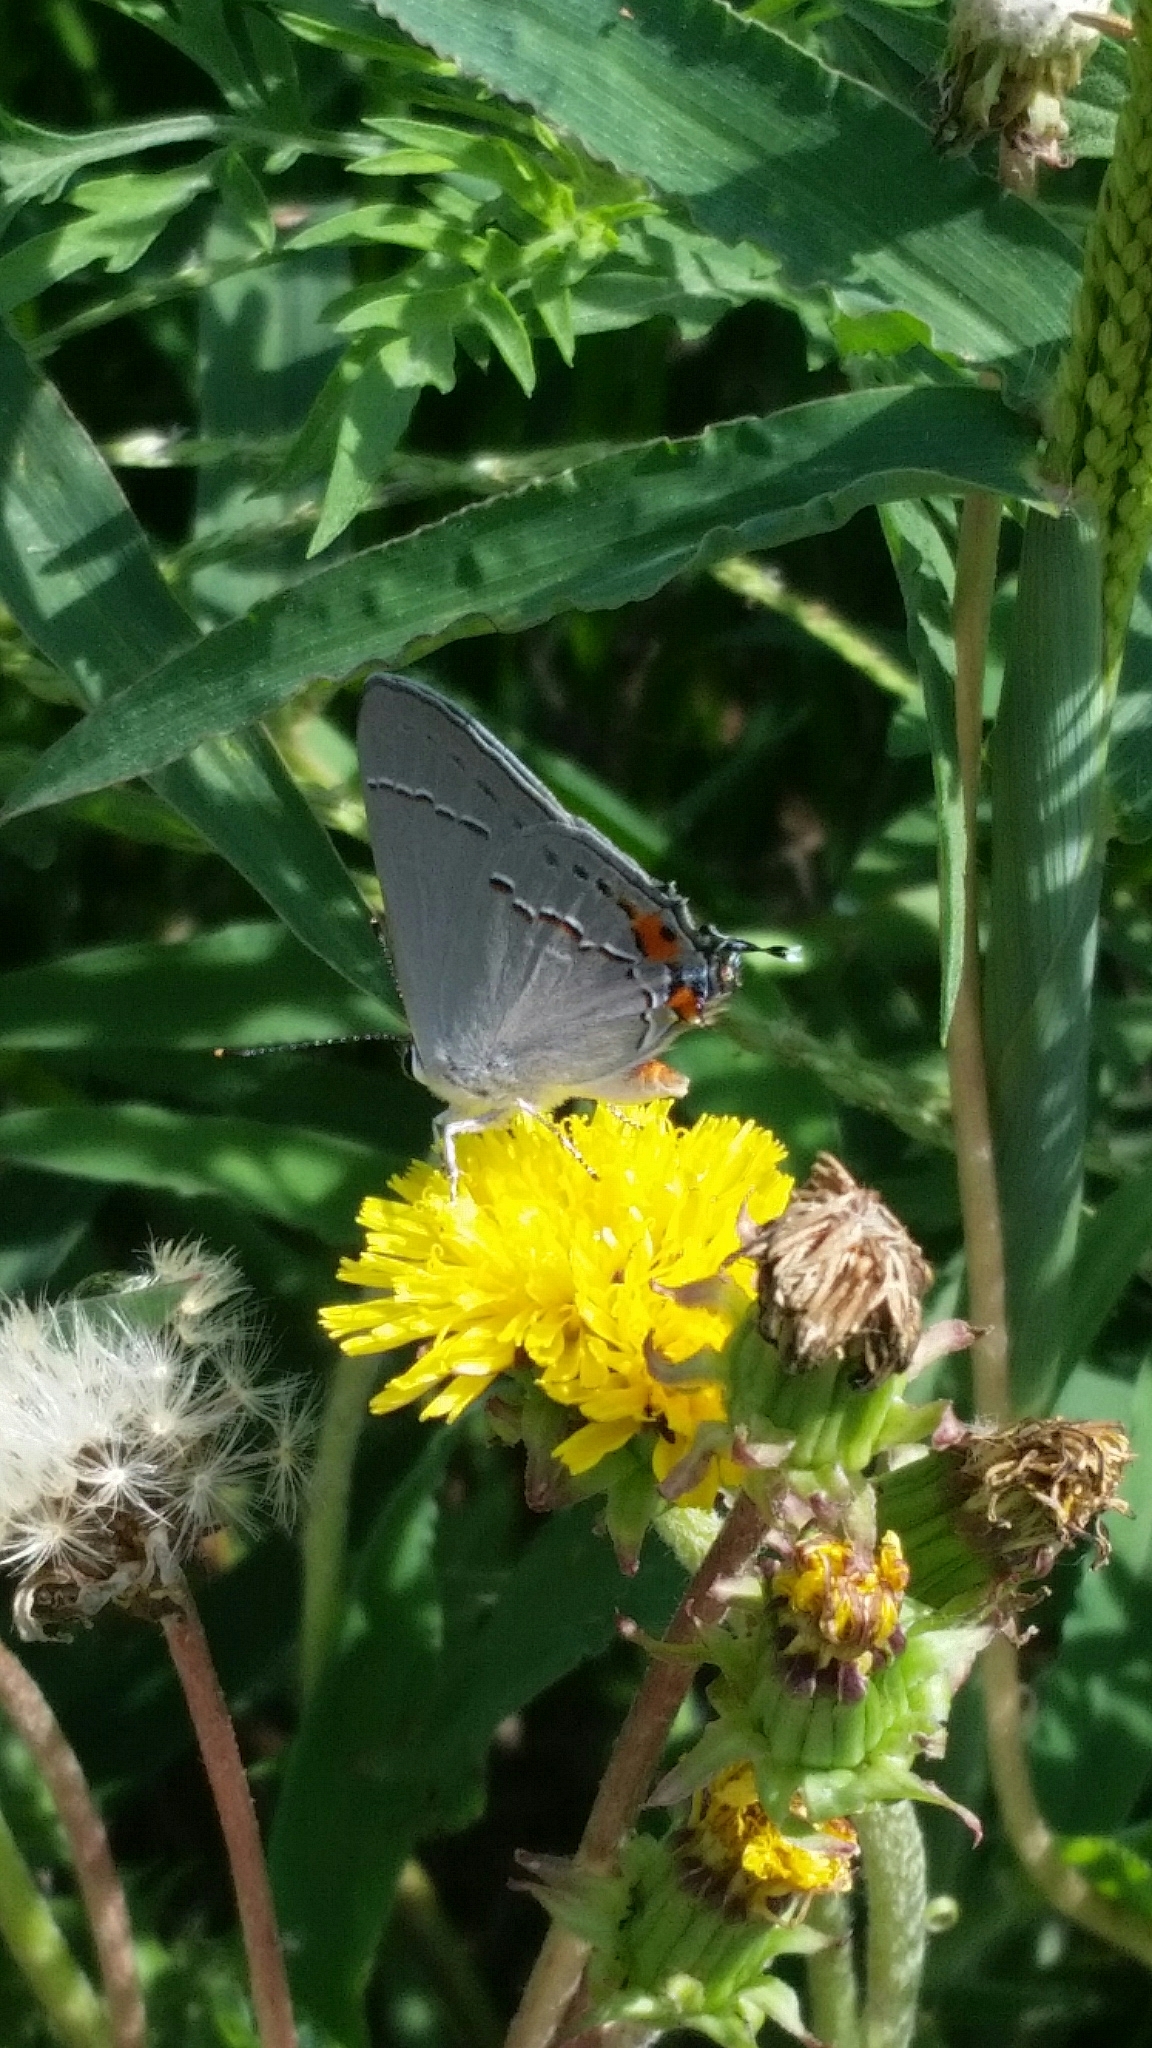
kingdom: Animalia
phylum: Arthropoda
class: Insecta
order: Lepidoptera
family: Lycaenidae
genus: Strymon
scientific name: Strymon melinus
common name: Gray hairstreak
